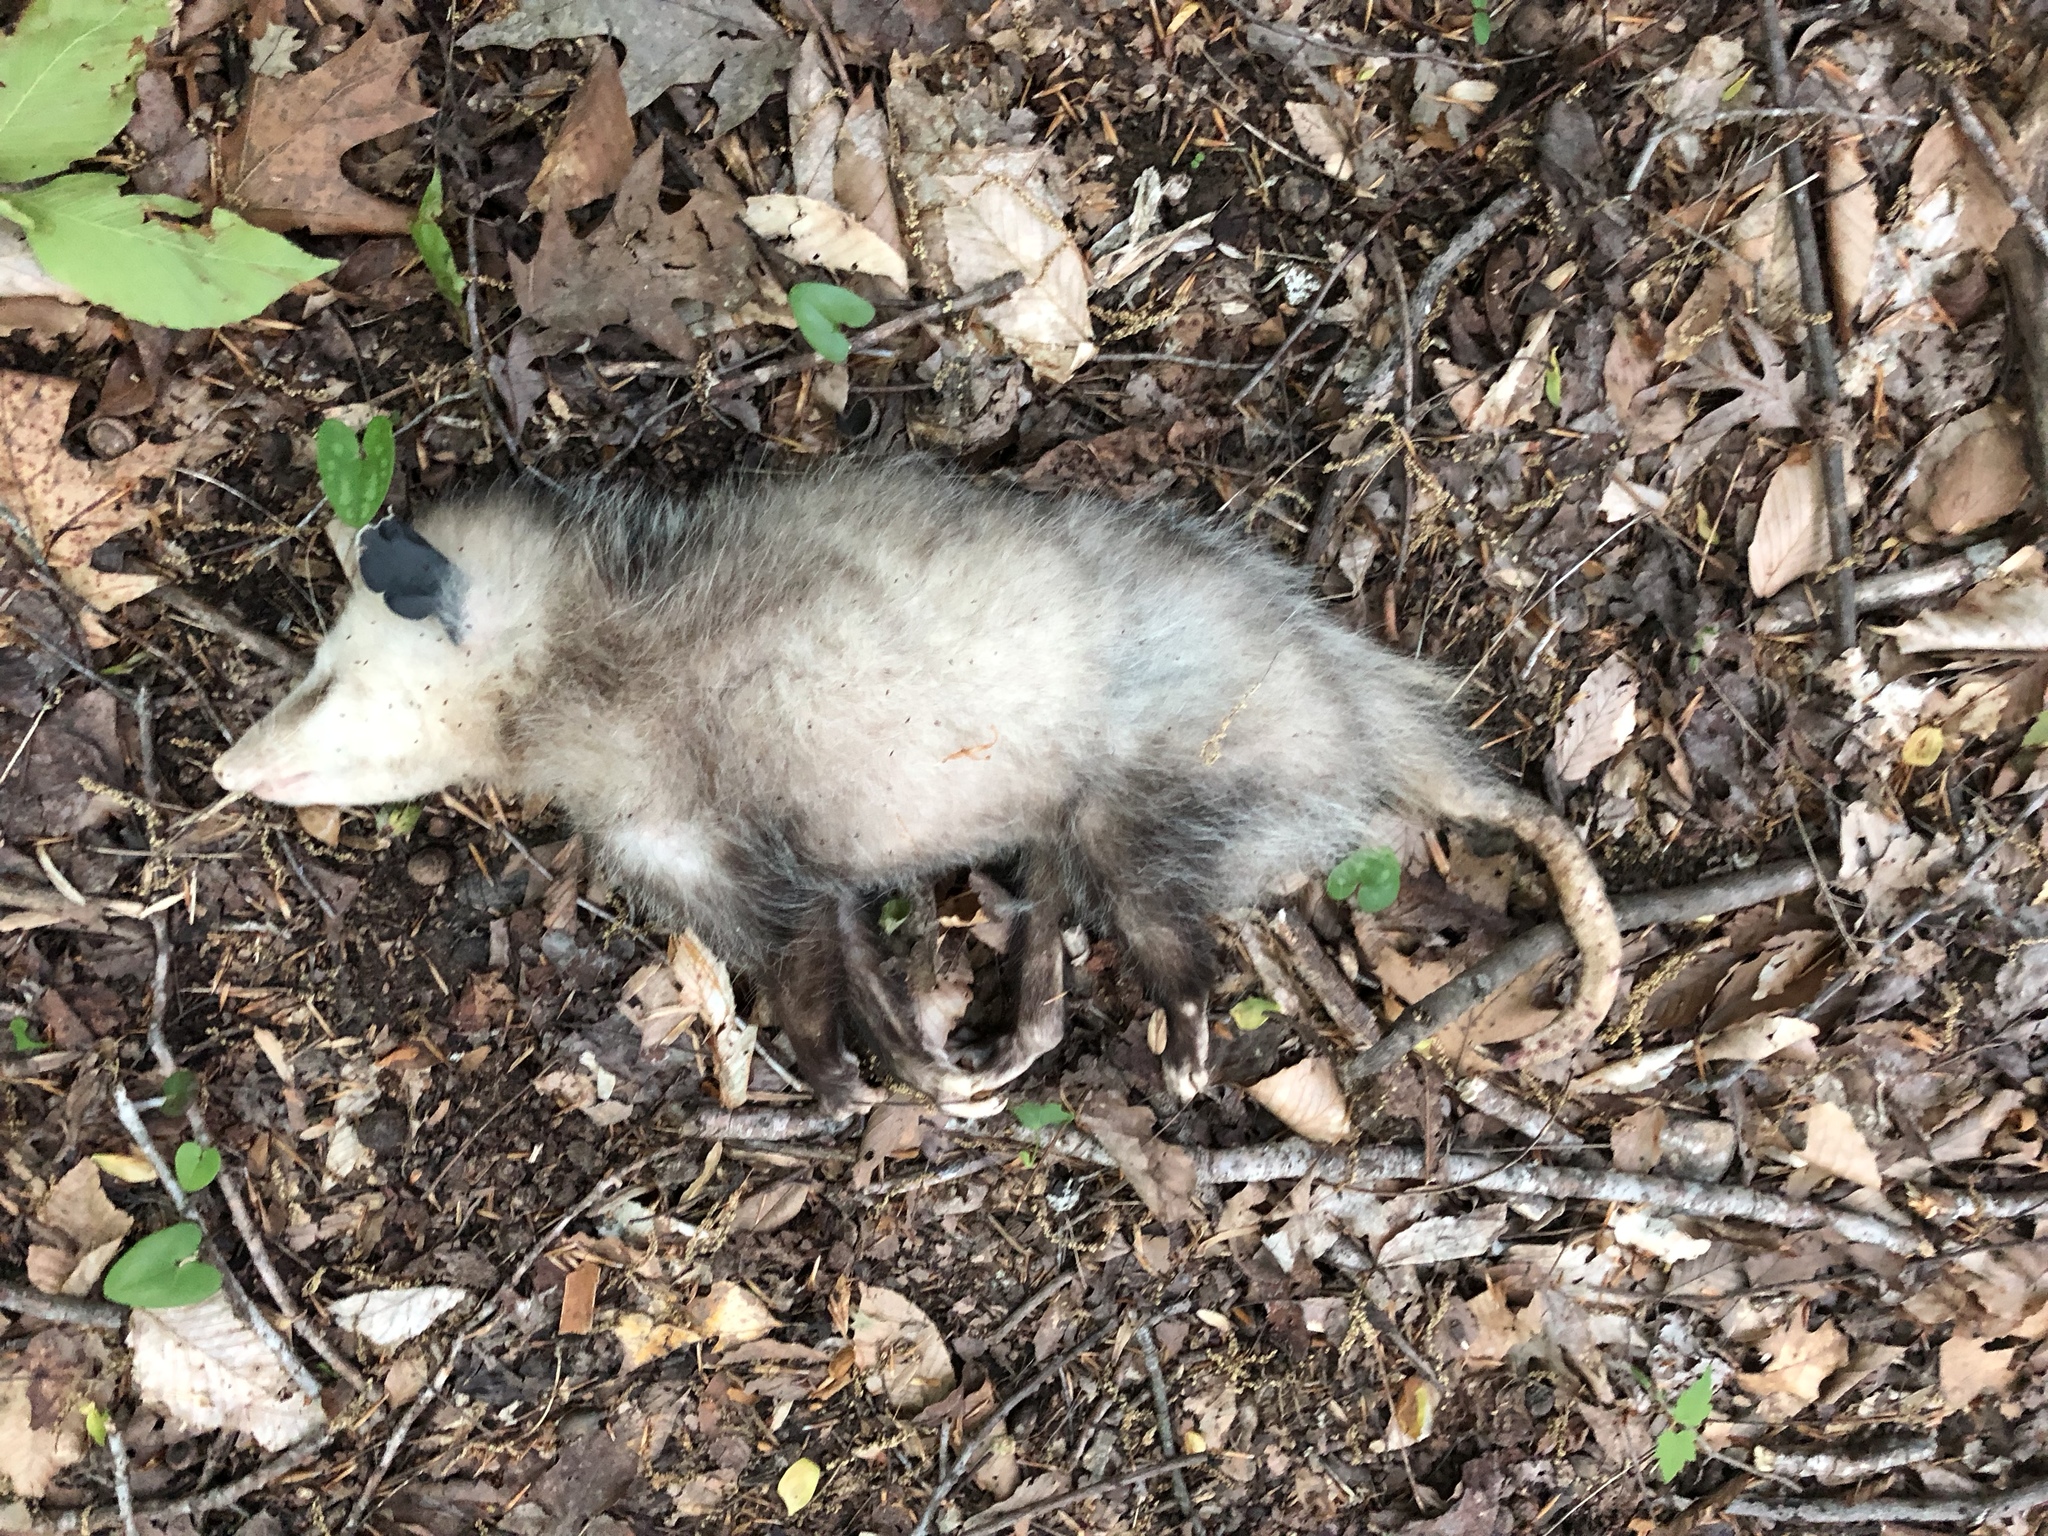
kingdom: Animalia
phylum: Chordata
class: Mammalia
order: Didelphimorphia
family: Didelphidae
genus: Didelphis
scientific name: Didelphis virginiana
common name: Virginia opossum
